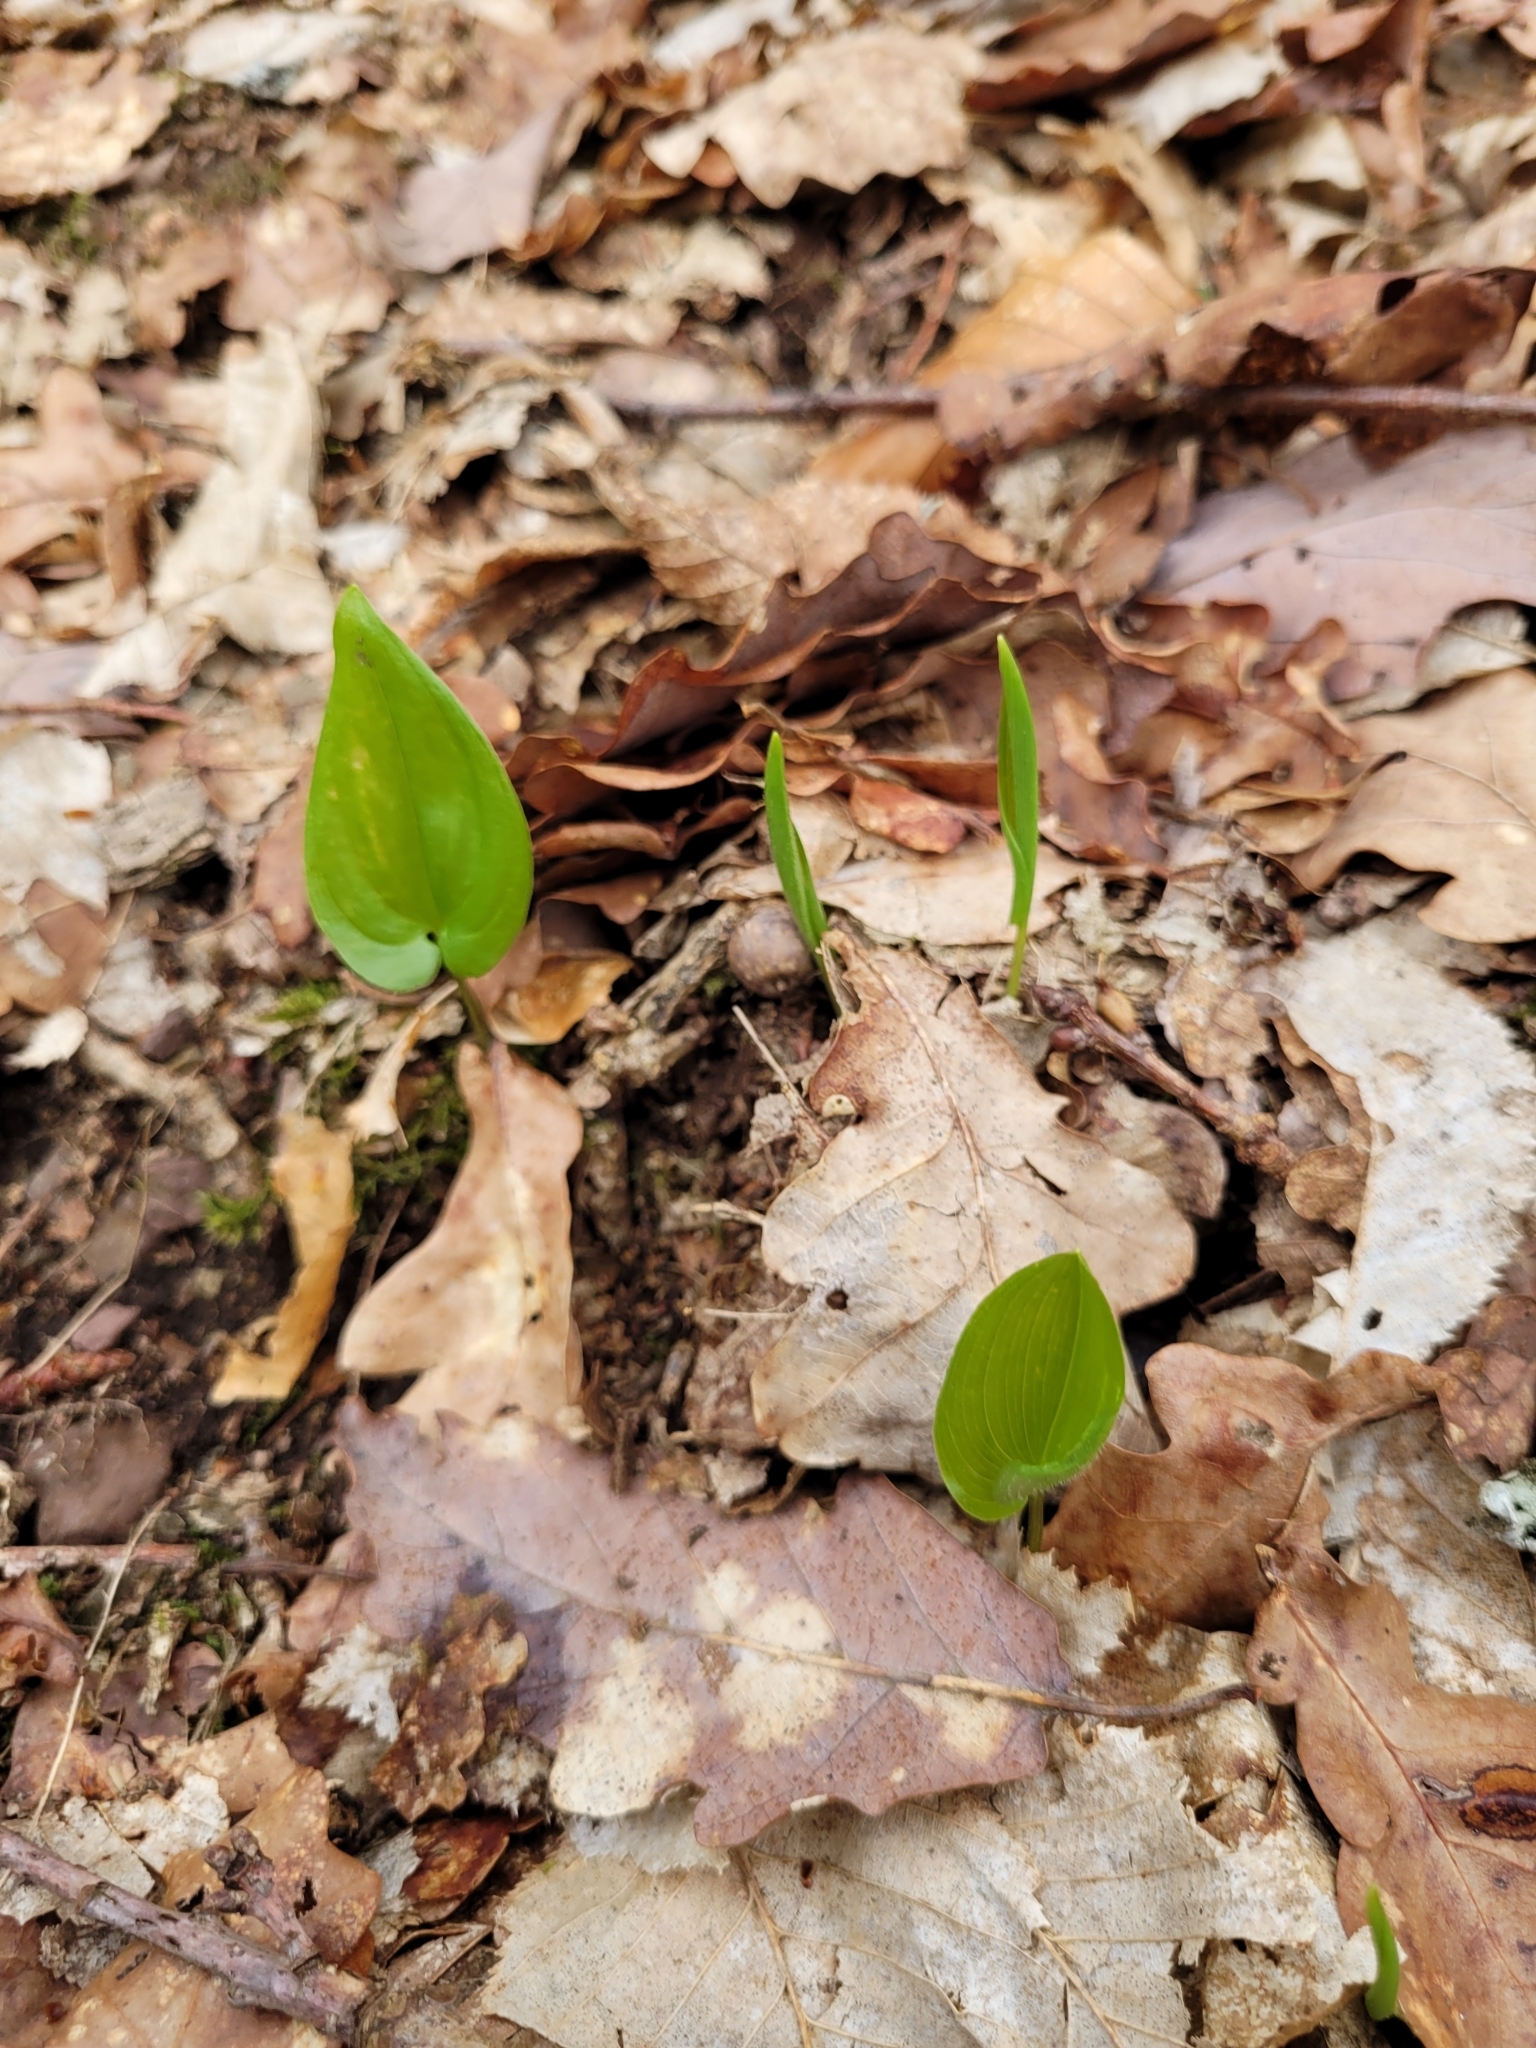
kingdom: Plantae
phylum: Tracheophyta
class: Liliopsida
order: Asparagales
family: Asparagaceae
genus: Maianthemum
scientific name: Maianthemum bifolium
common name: May lily
